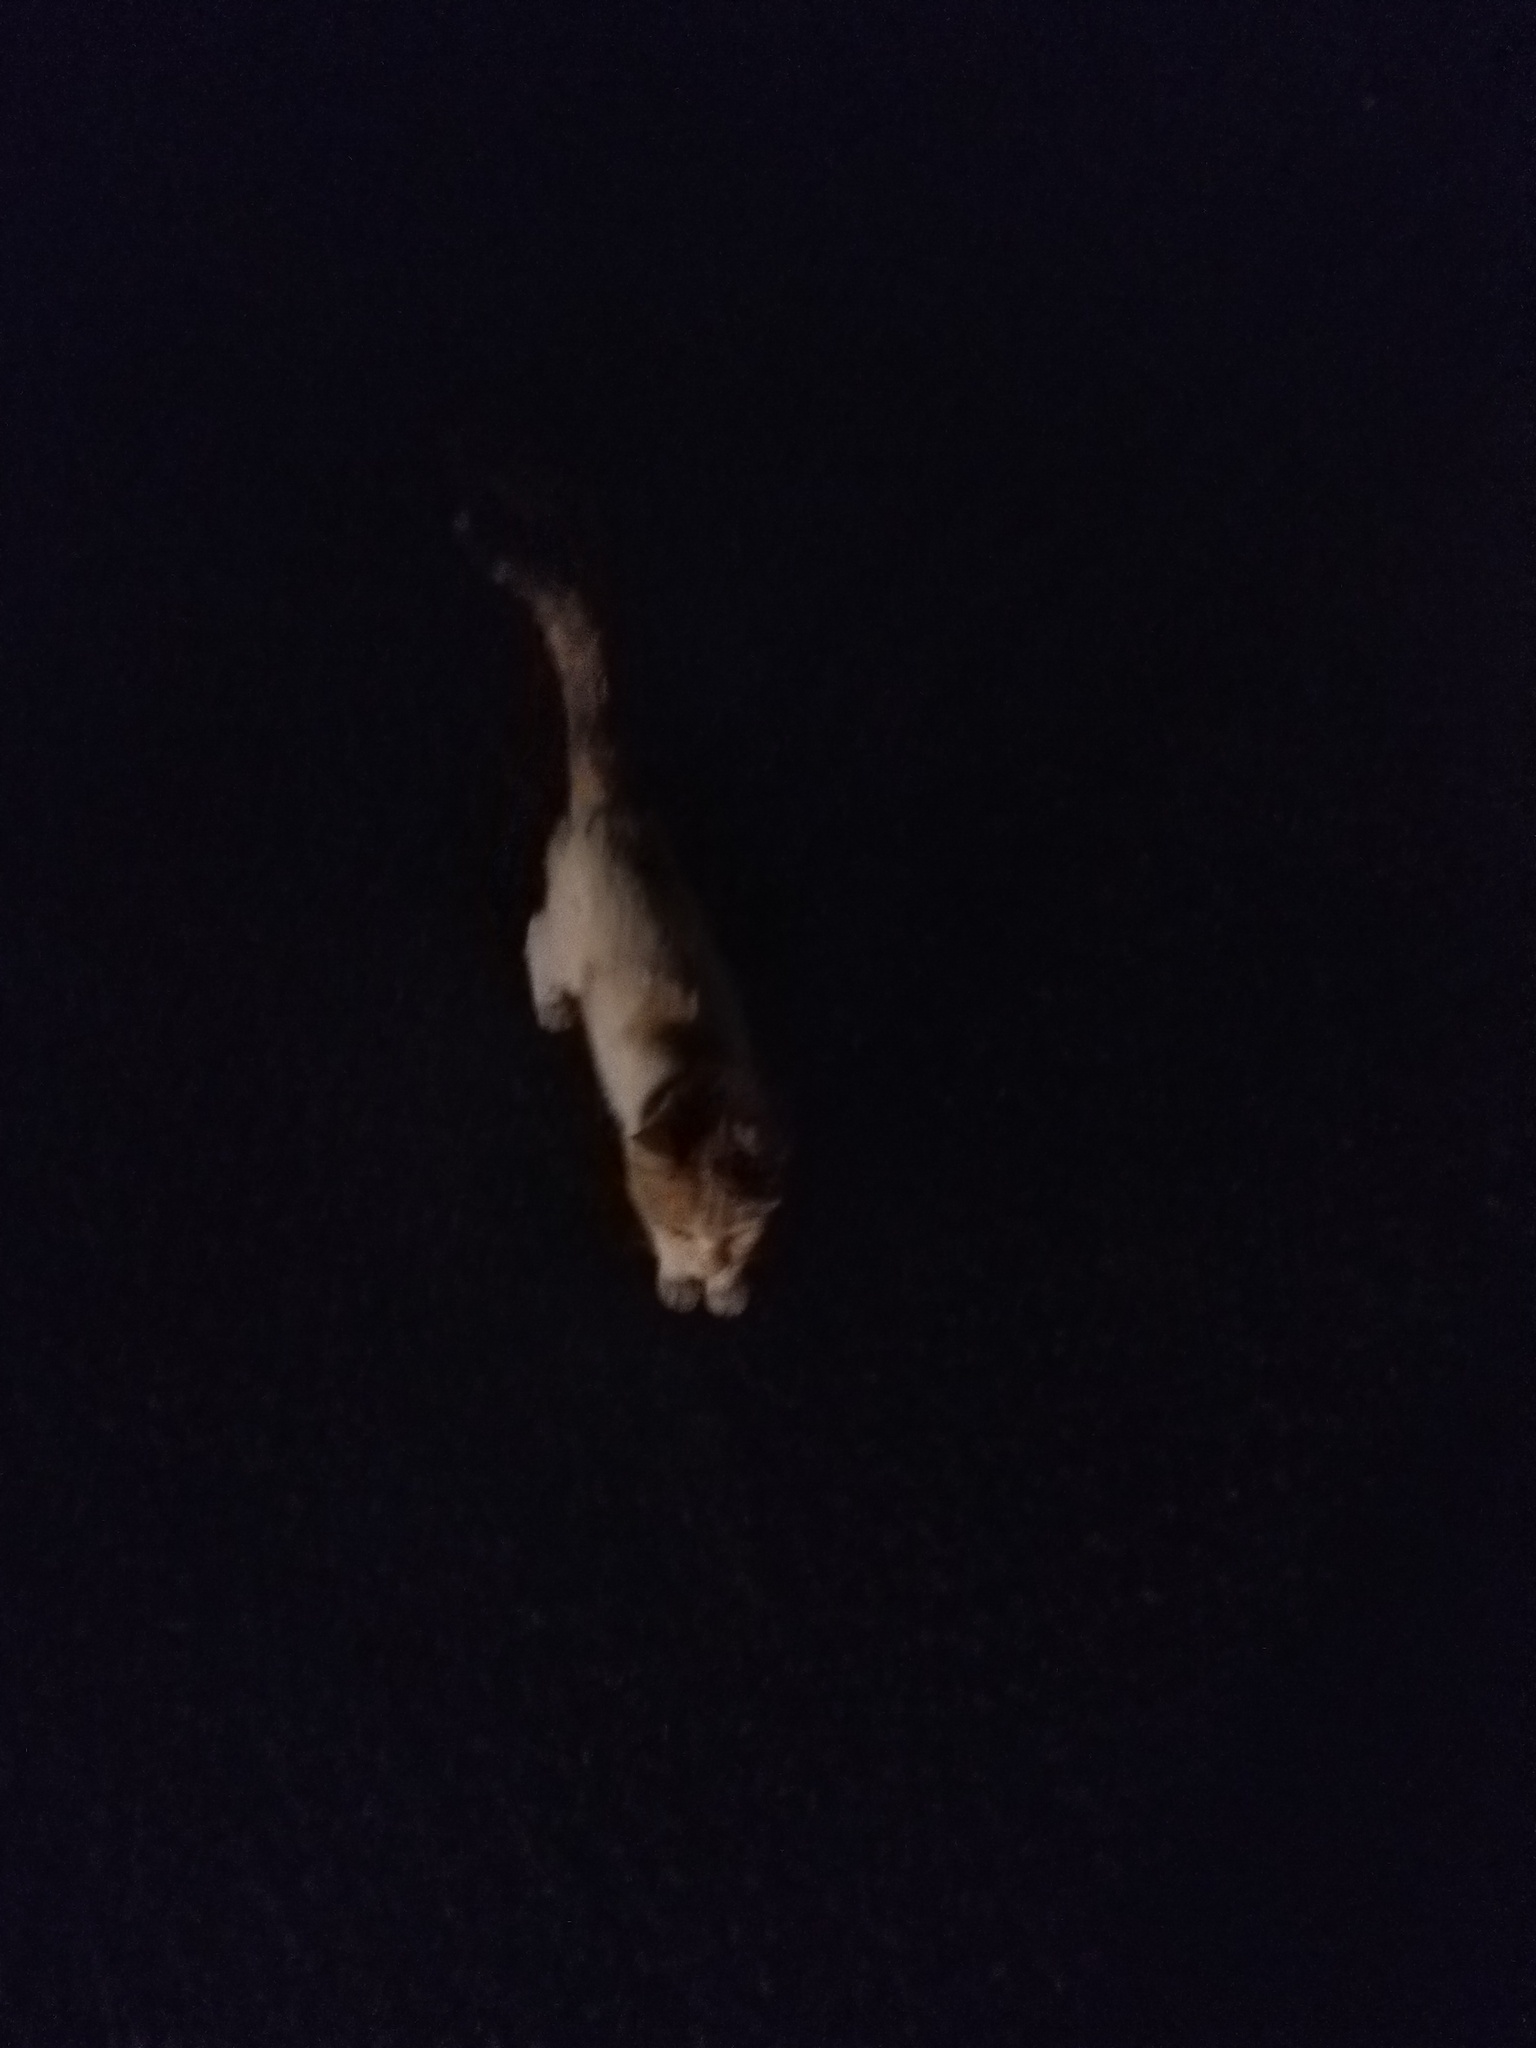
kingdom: Animalia
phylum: Chordata
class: Mammalia
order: Carnivora
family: Felidae
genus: Felis
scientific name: Felis catus
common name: Domestic cat
